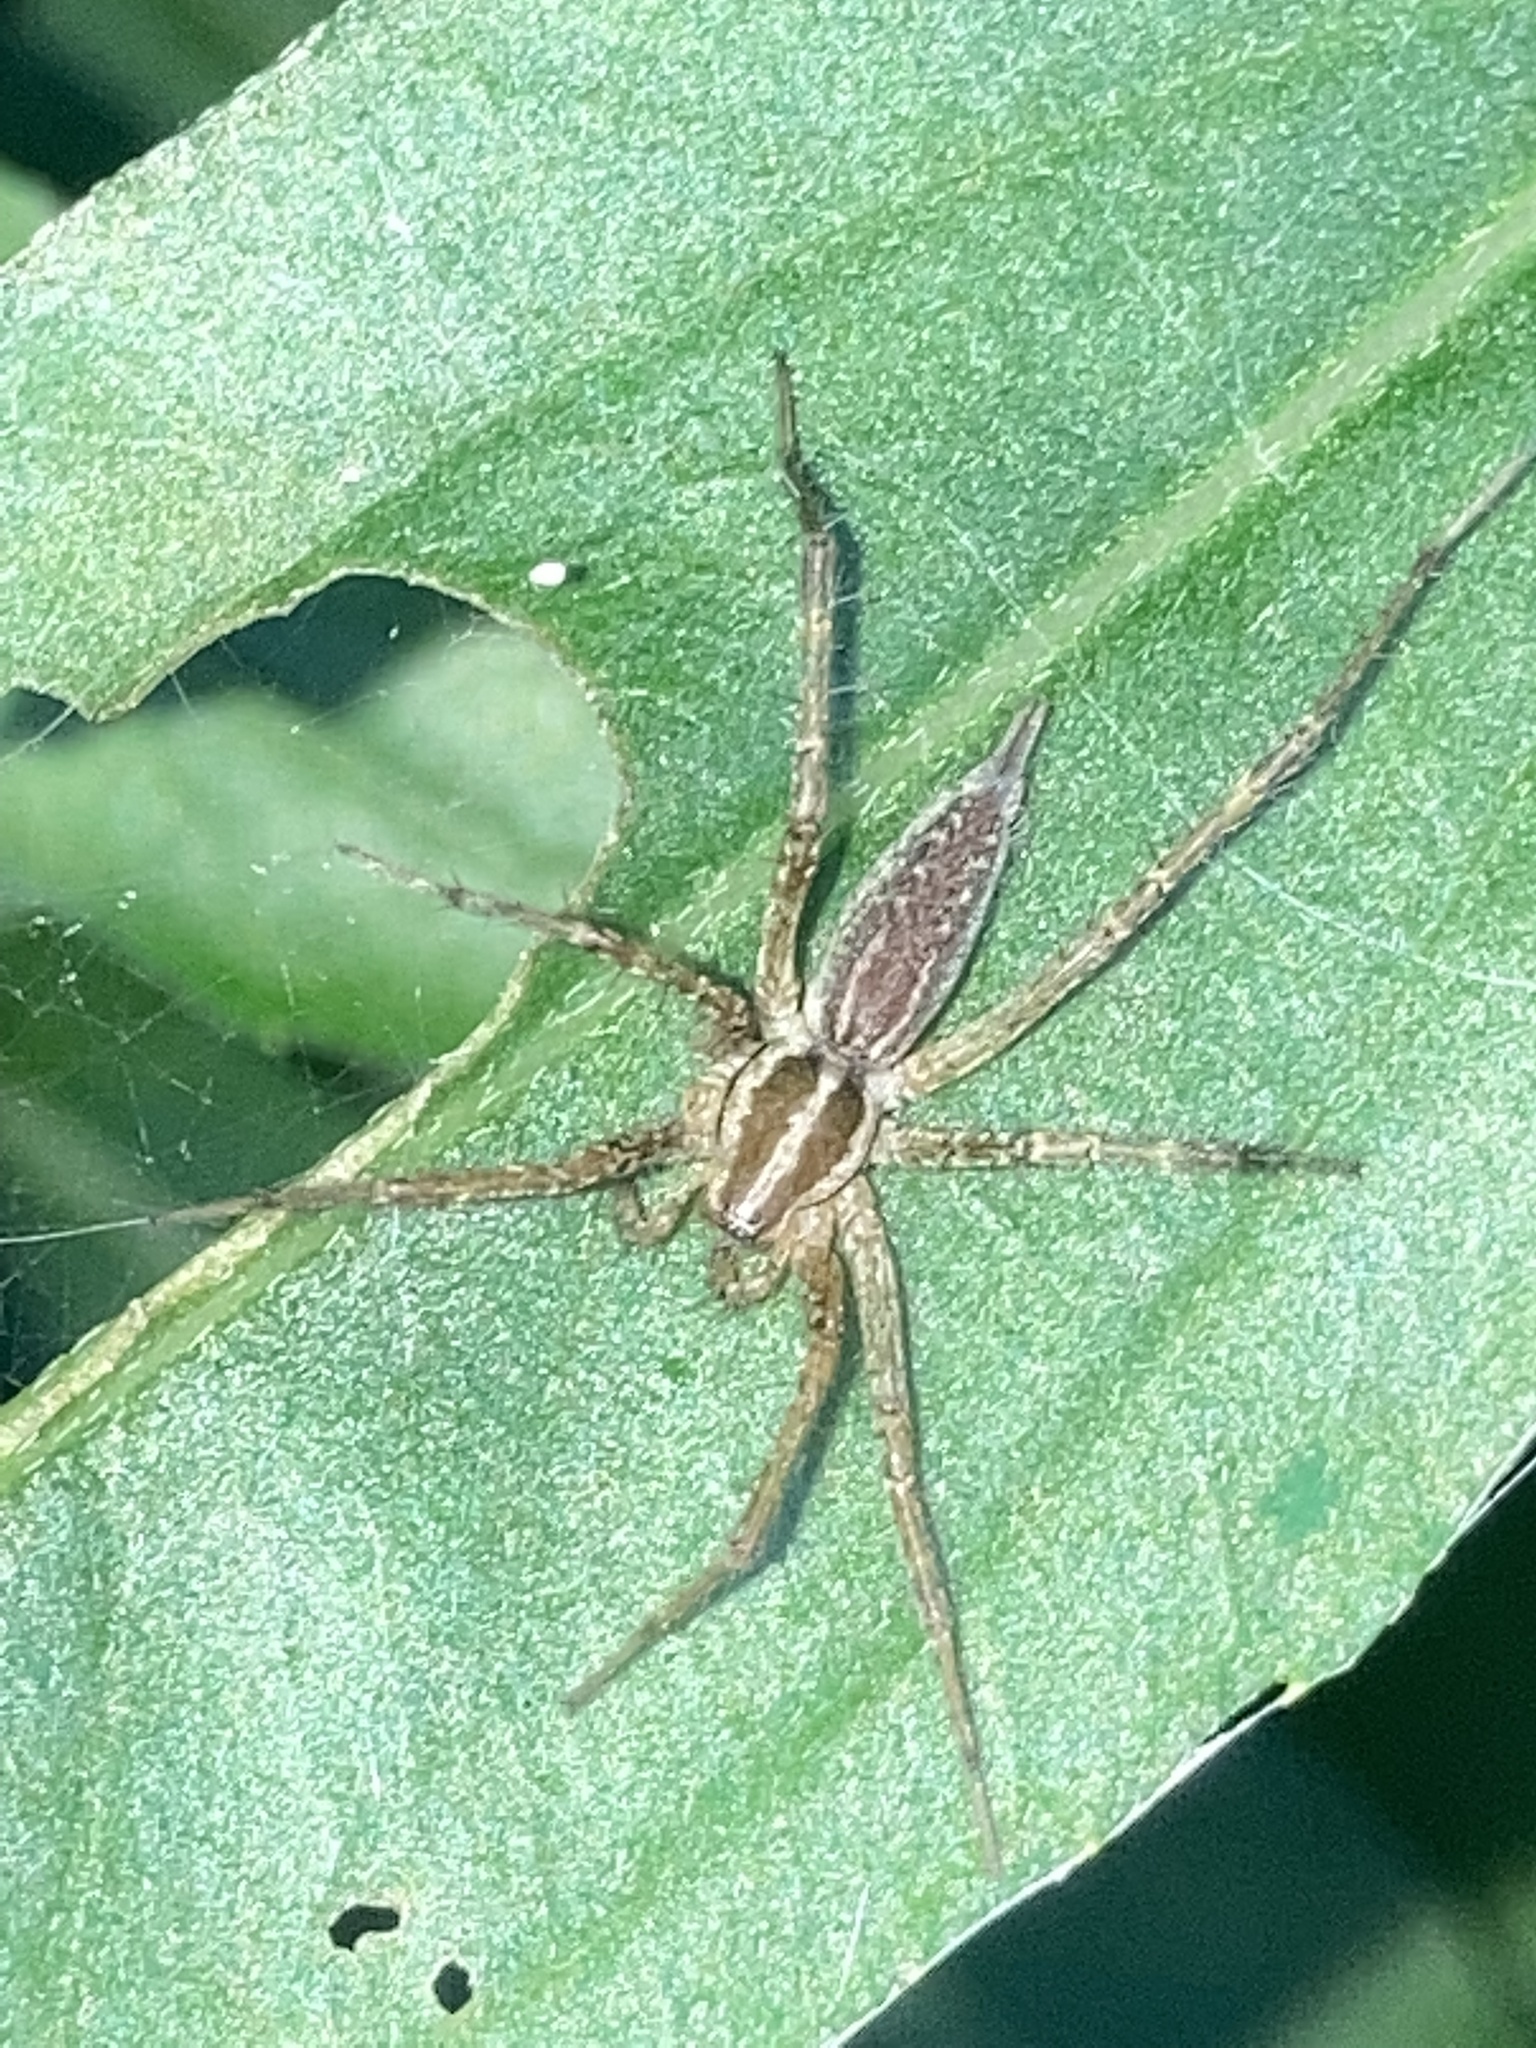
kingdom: Animalia
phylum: Arthropoda
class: Arachnida
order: Araneae
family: Agelenidae
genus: Agelenopsis
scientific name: Agelenopsis
